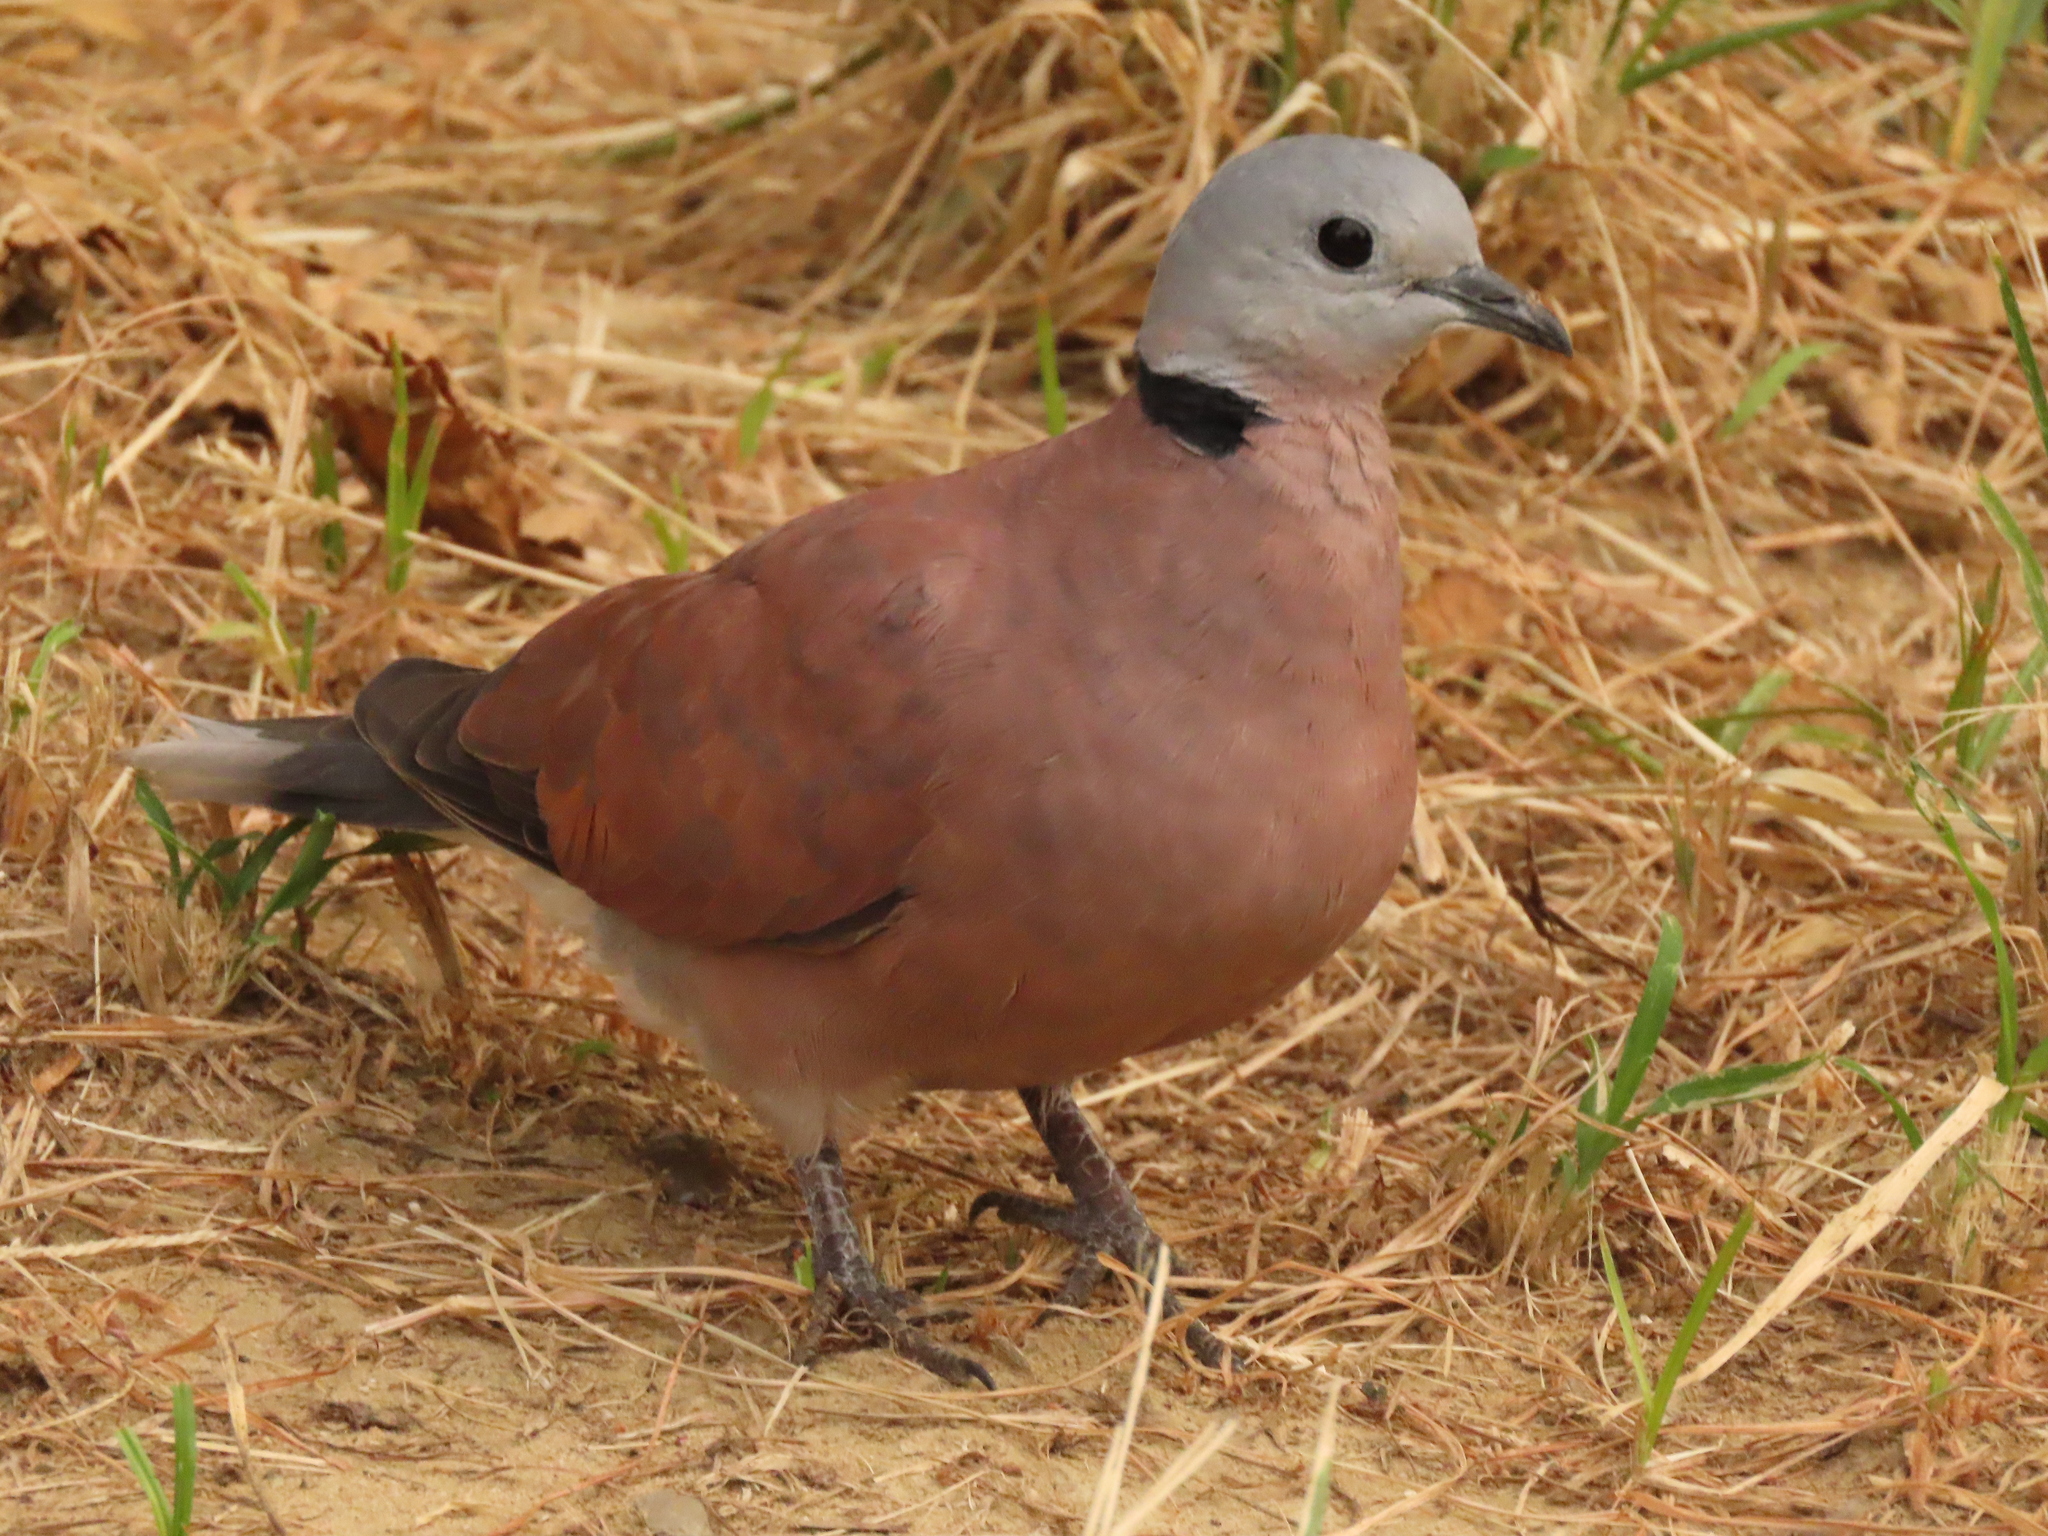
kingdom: Animalia
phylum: Chordata
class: Aves
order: Columbiformes
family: Columbidae
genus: Streptopelia
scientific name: Streptopelia tranquebarica
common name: Red turtle dove
